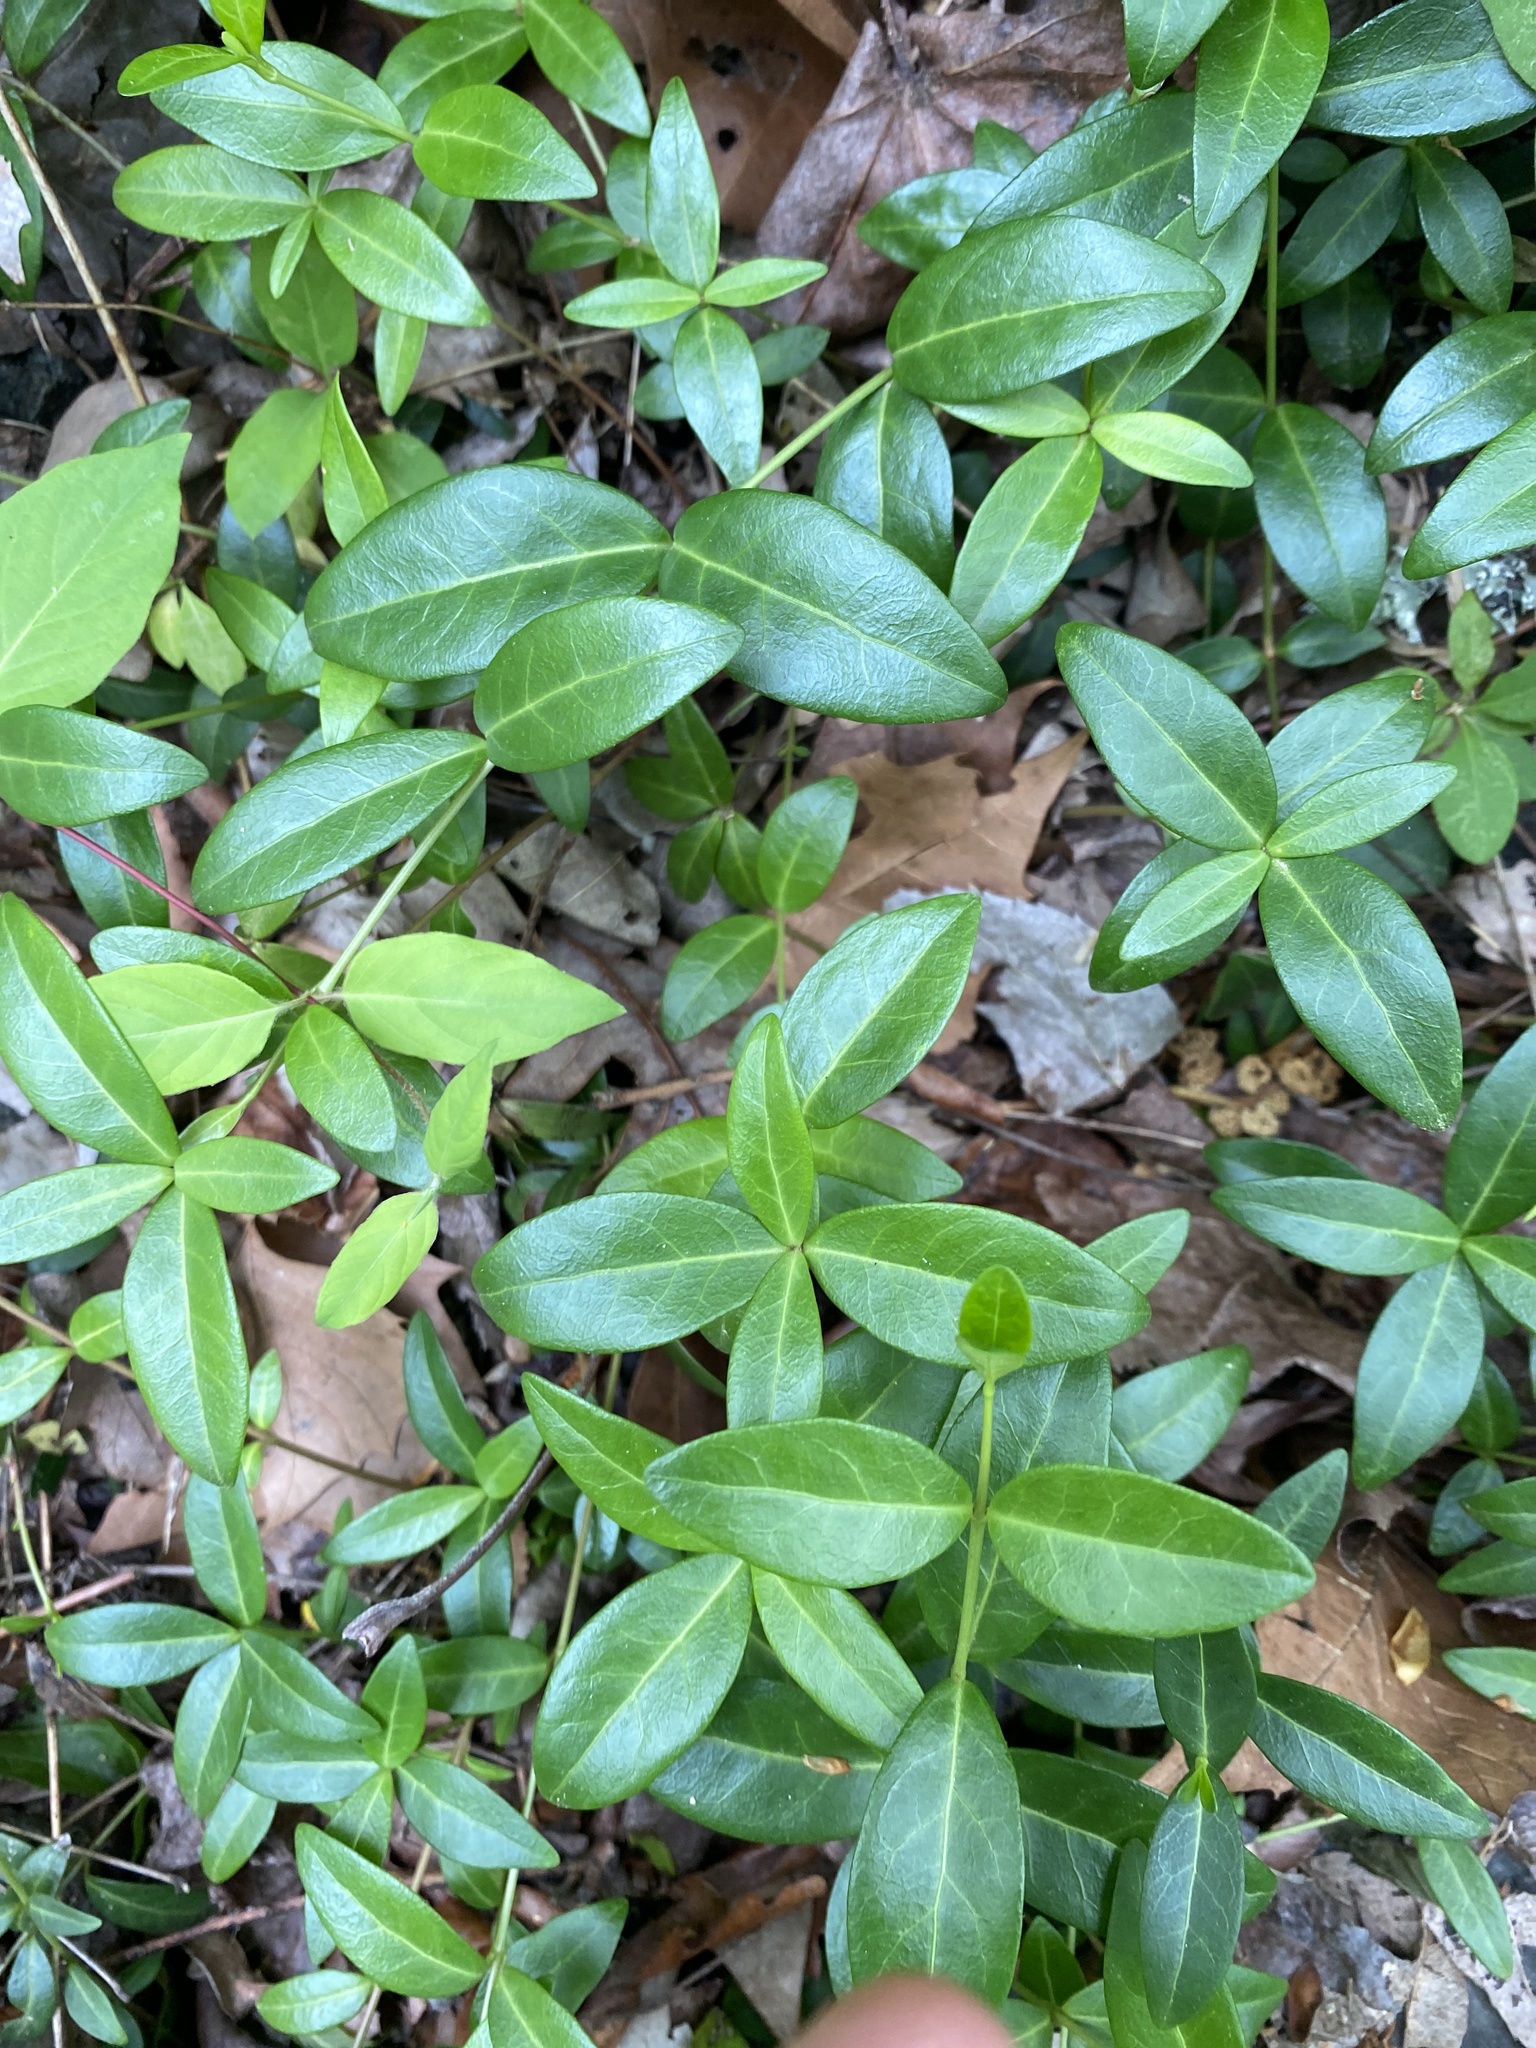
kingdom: Plantae
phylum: Tracheophyta
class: Magnoliopsida
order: Gentianales
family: Apocynaceae
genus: Vinca
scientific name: Vinca minor
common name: Lesser periwinkle
